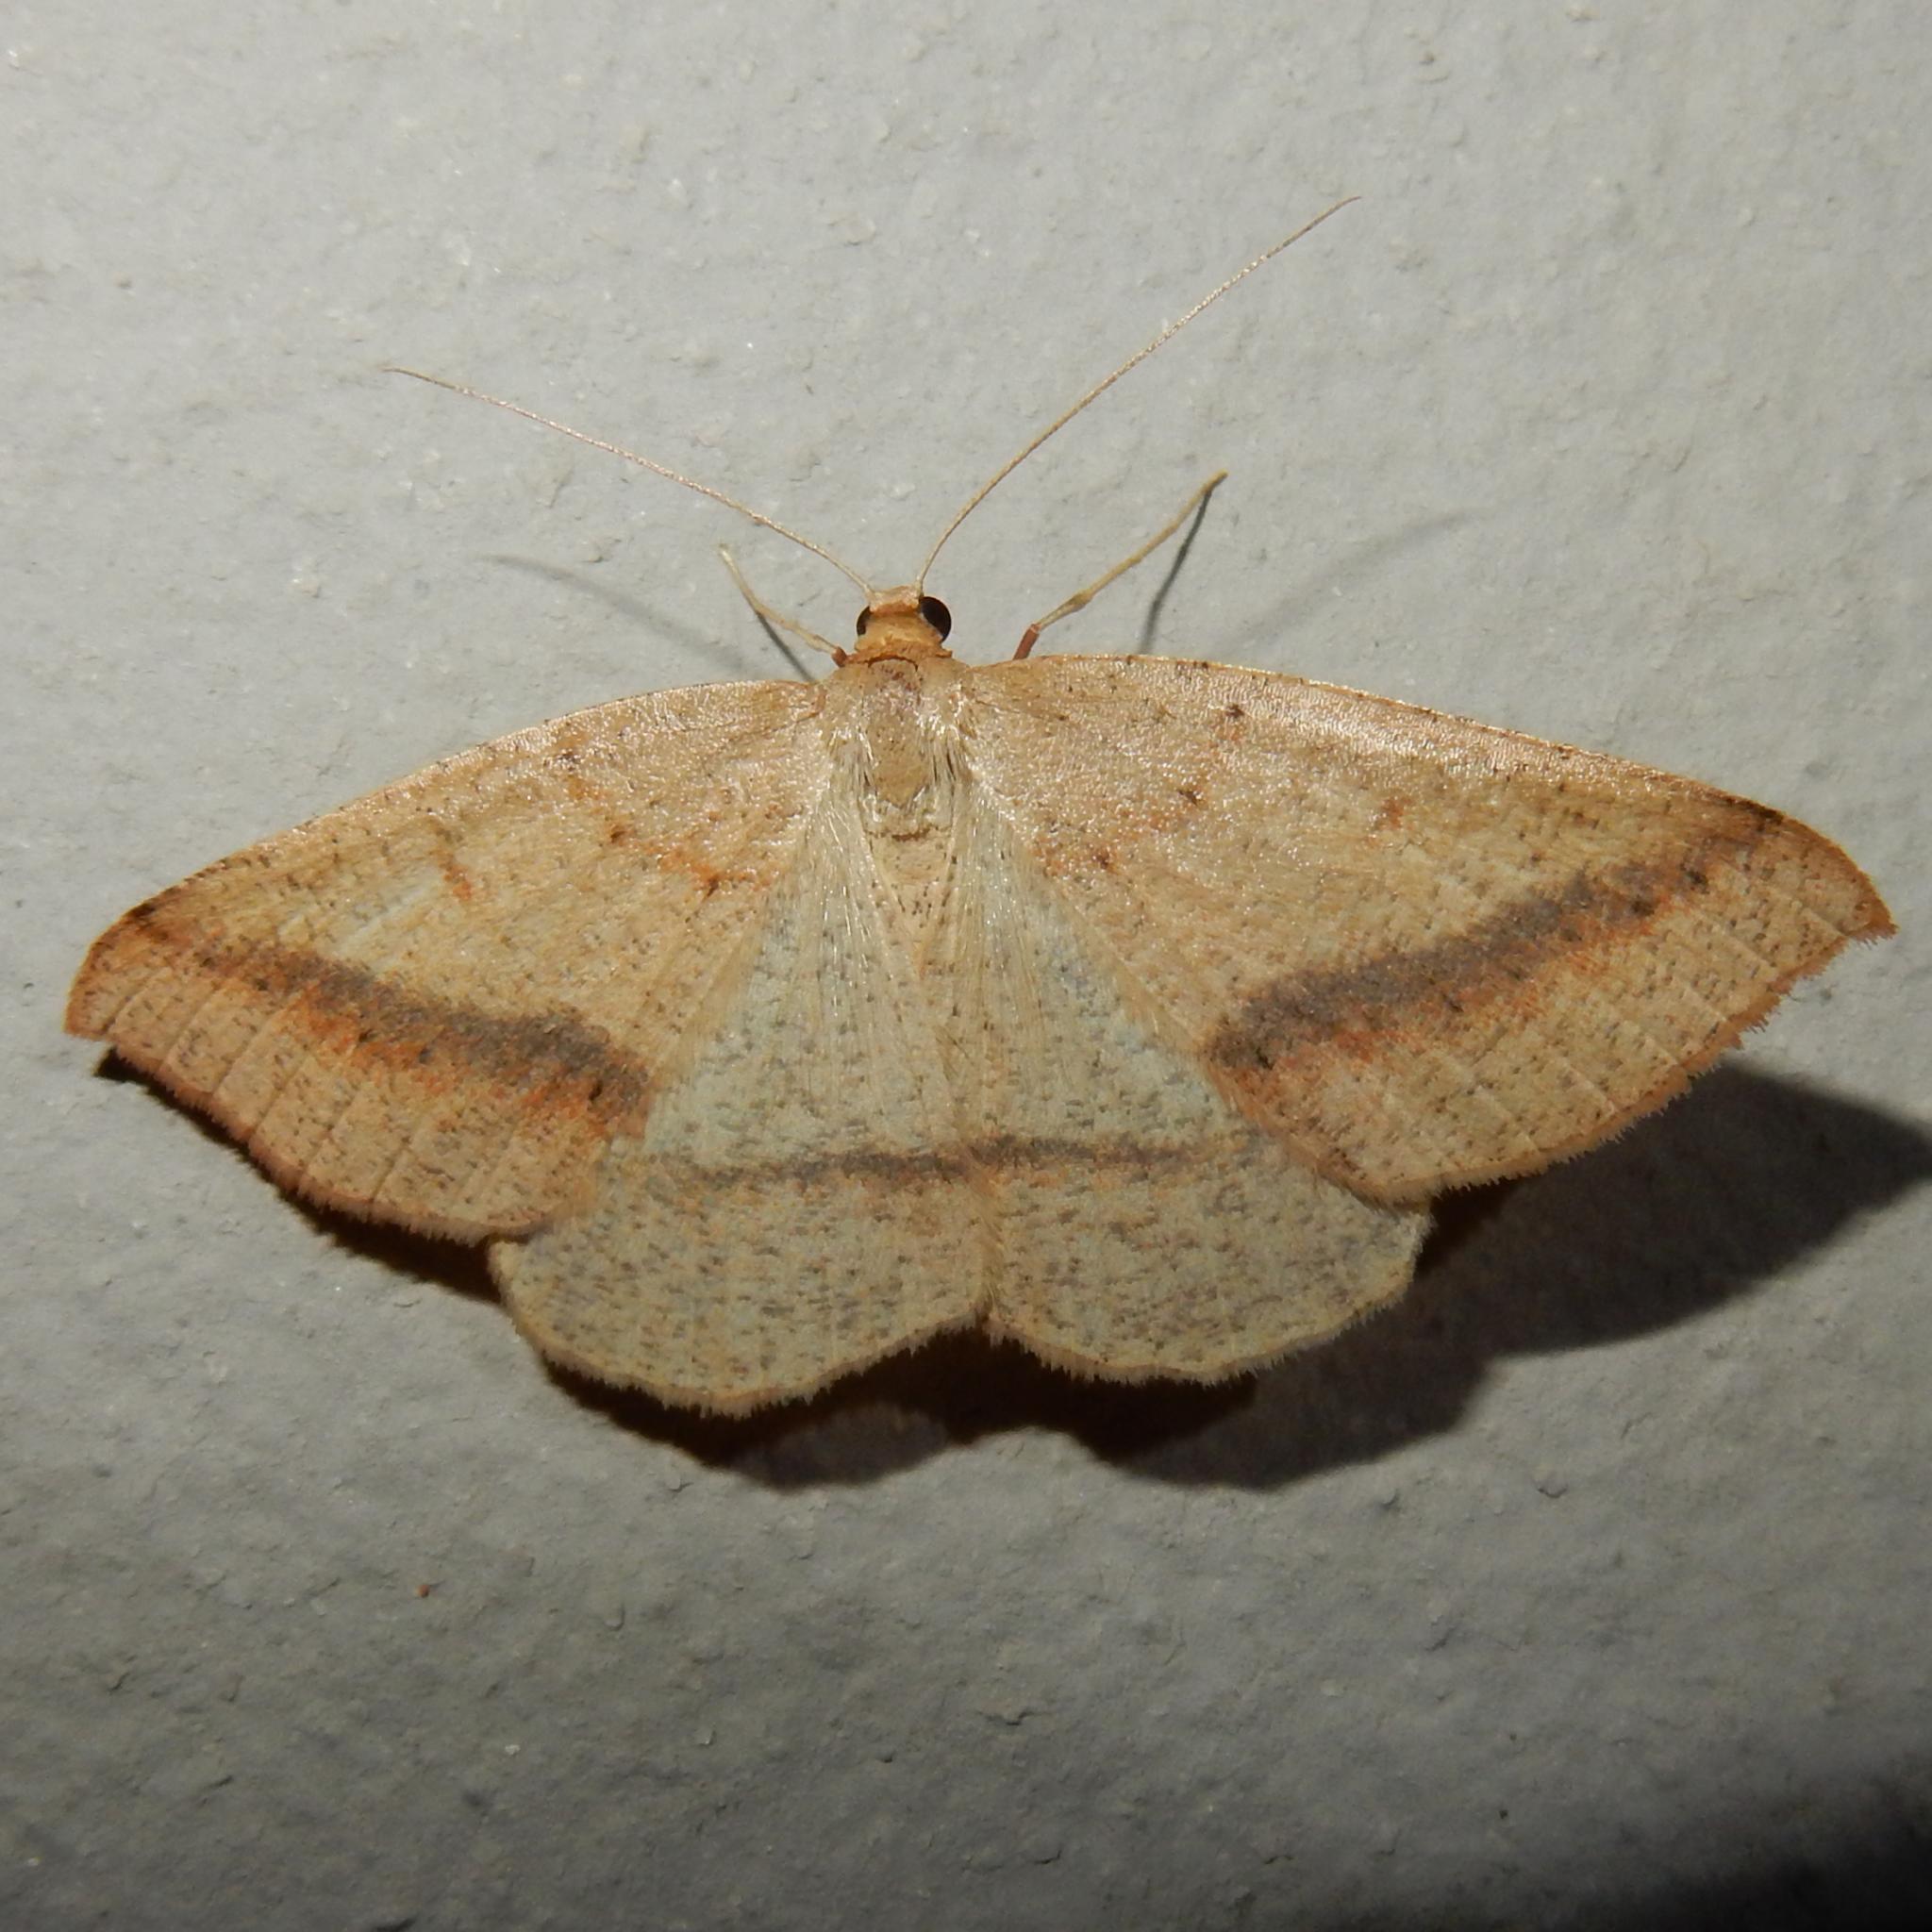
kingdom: Animalia
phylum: Arthropoda
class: Insecta
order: Lepidoptera
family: Geometridae
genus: Palaeaspilates
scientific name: Palaeaspilates inoffensa
